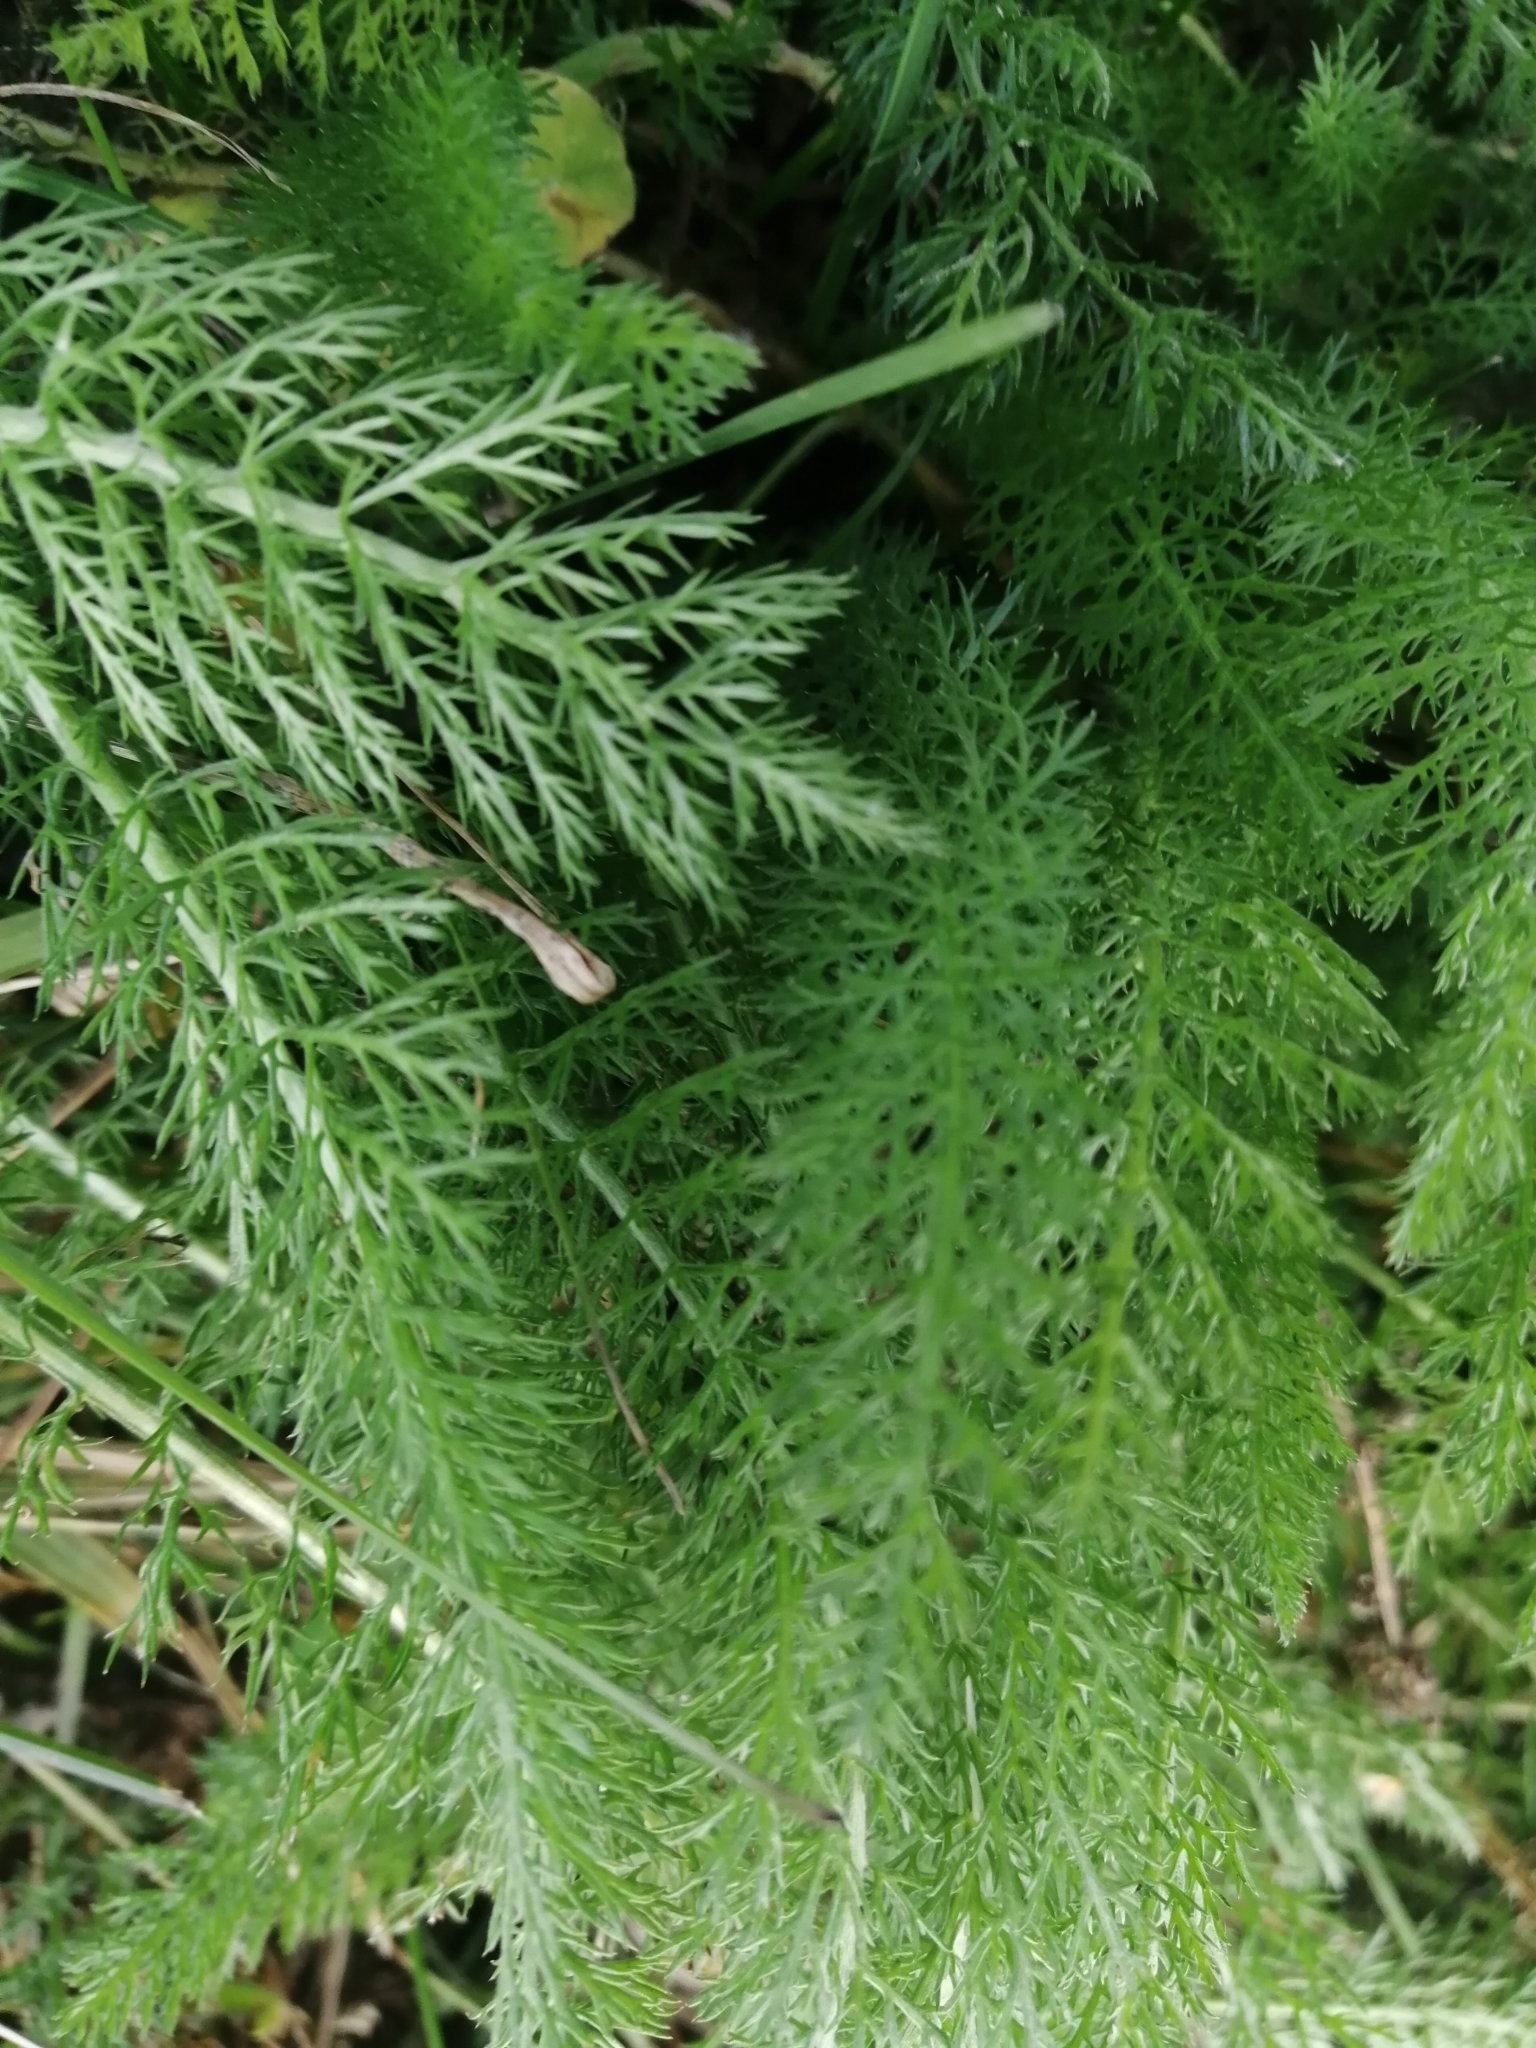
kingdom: Plantae
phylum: Tracheophyta
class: Magnoliopsida
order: Asterales
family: Asteraceae
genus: Achillea
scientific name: Achillea millefolium
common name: Yarrow
